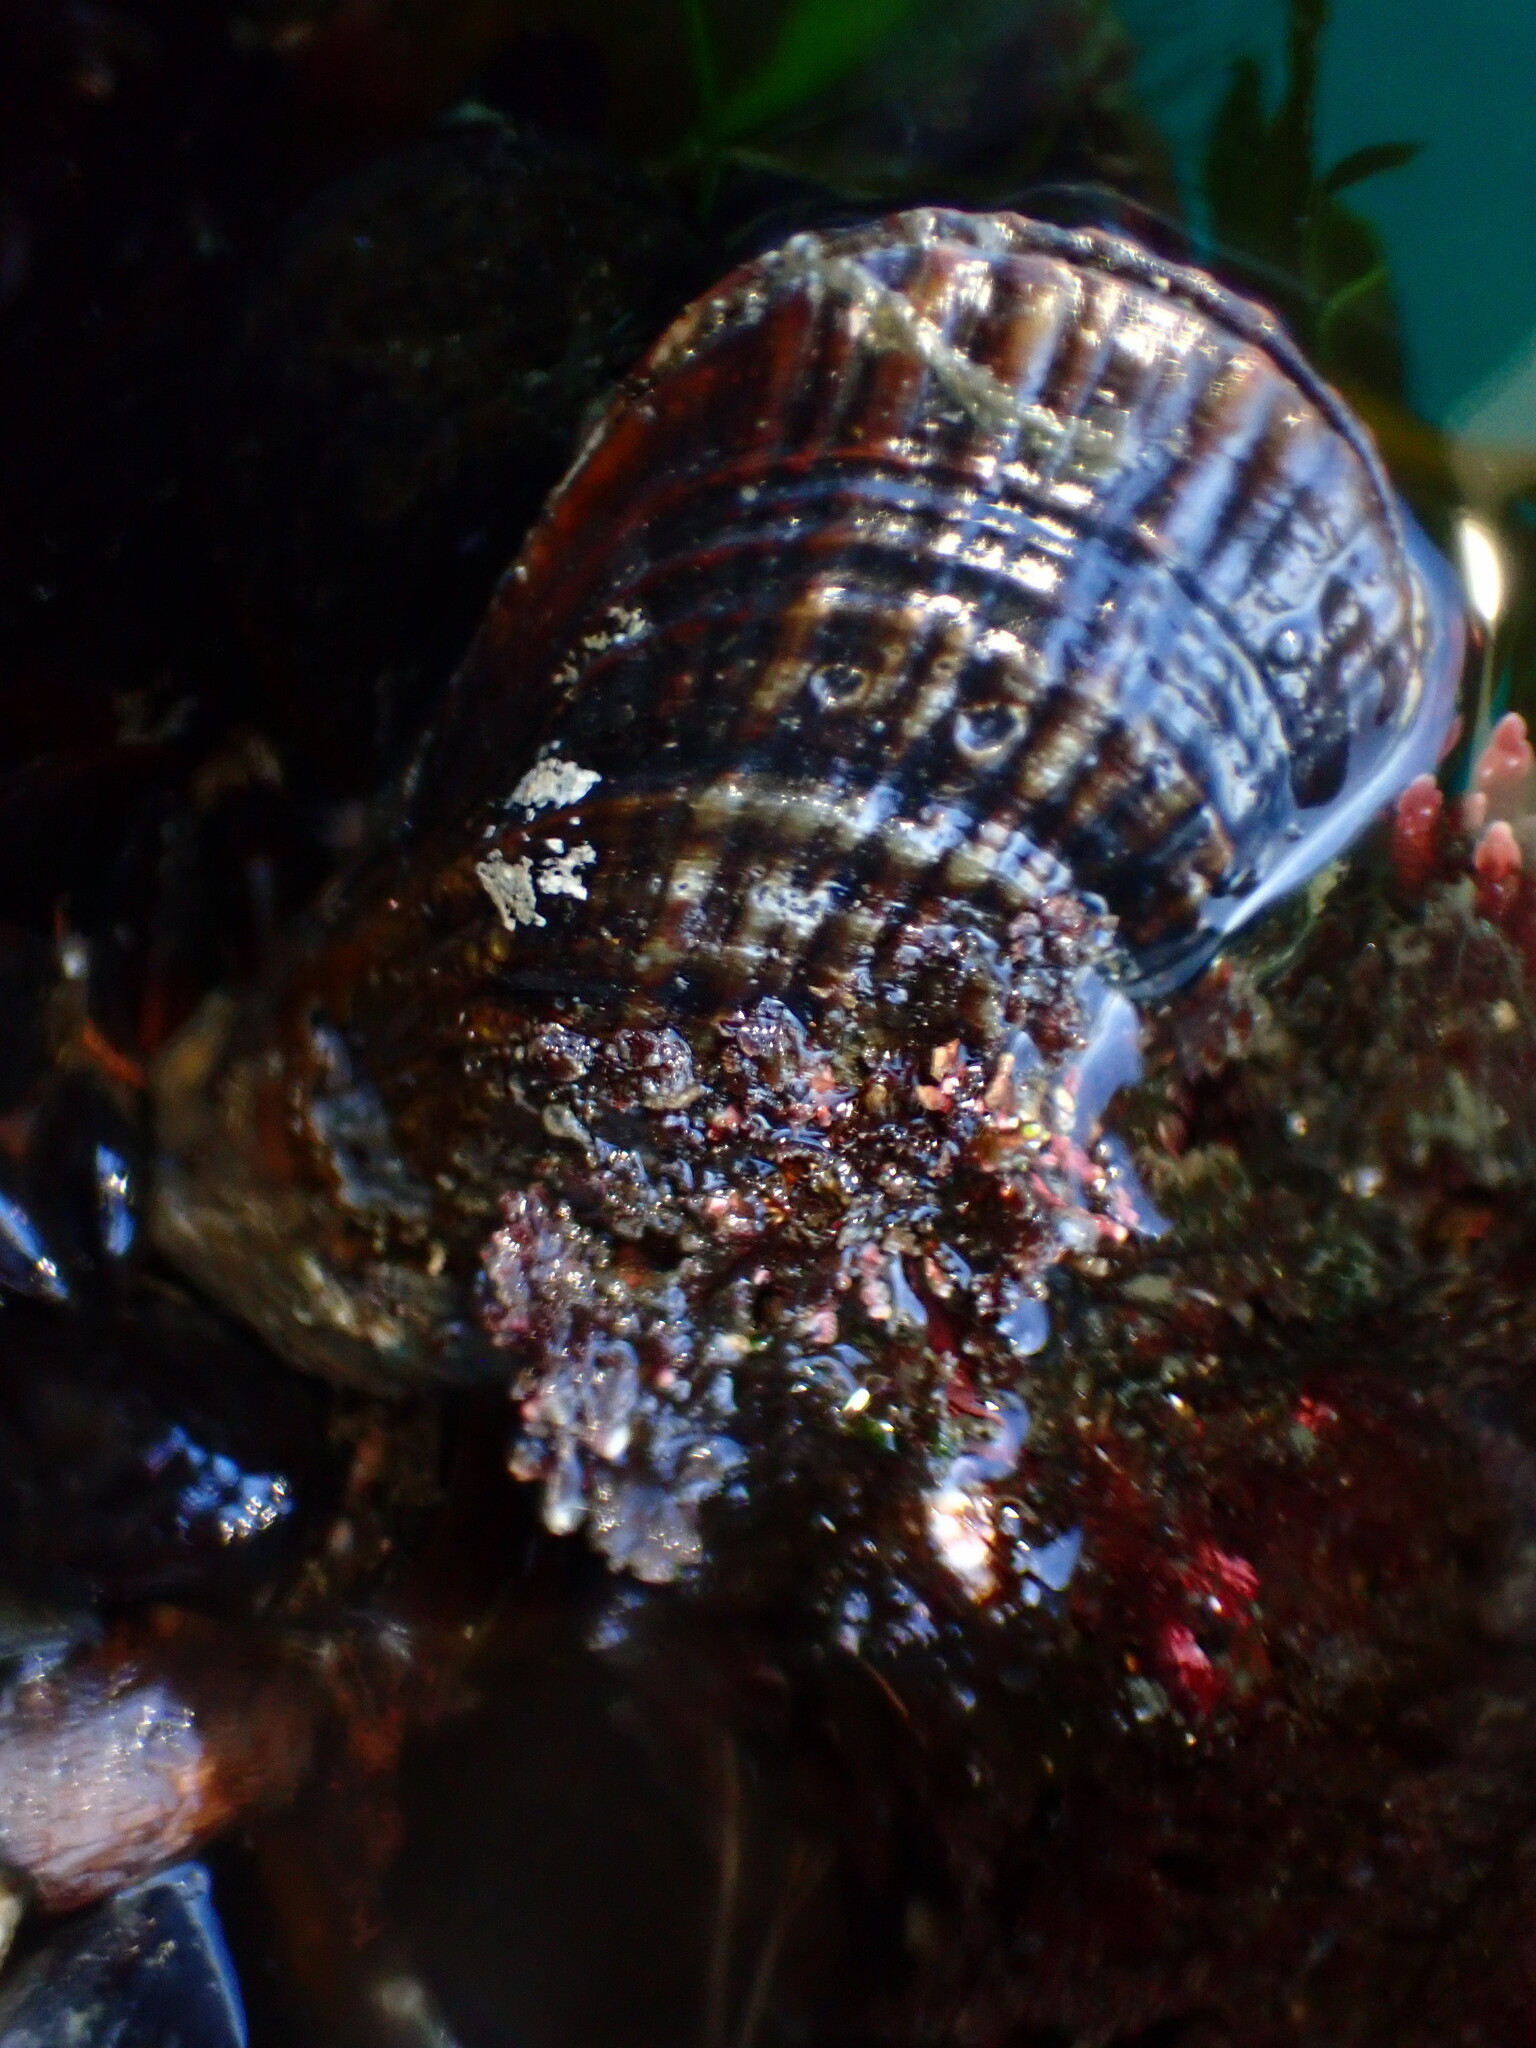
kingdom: Animalia
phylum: Mollusca
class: Bivalvia
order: Mytilida
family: Mytilidae
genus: Mytilus
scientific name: Mytilus californianus
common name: California mussel
